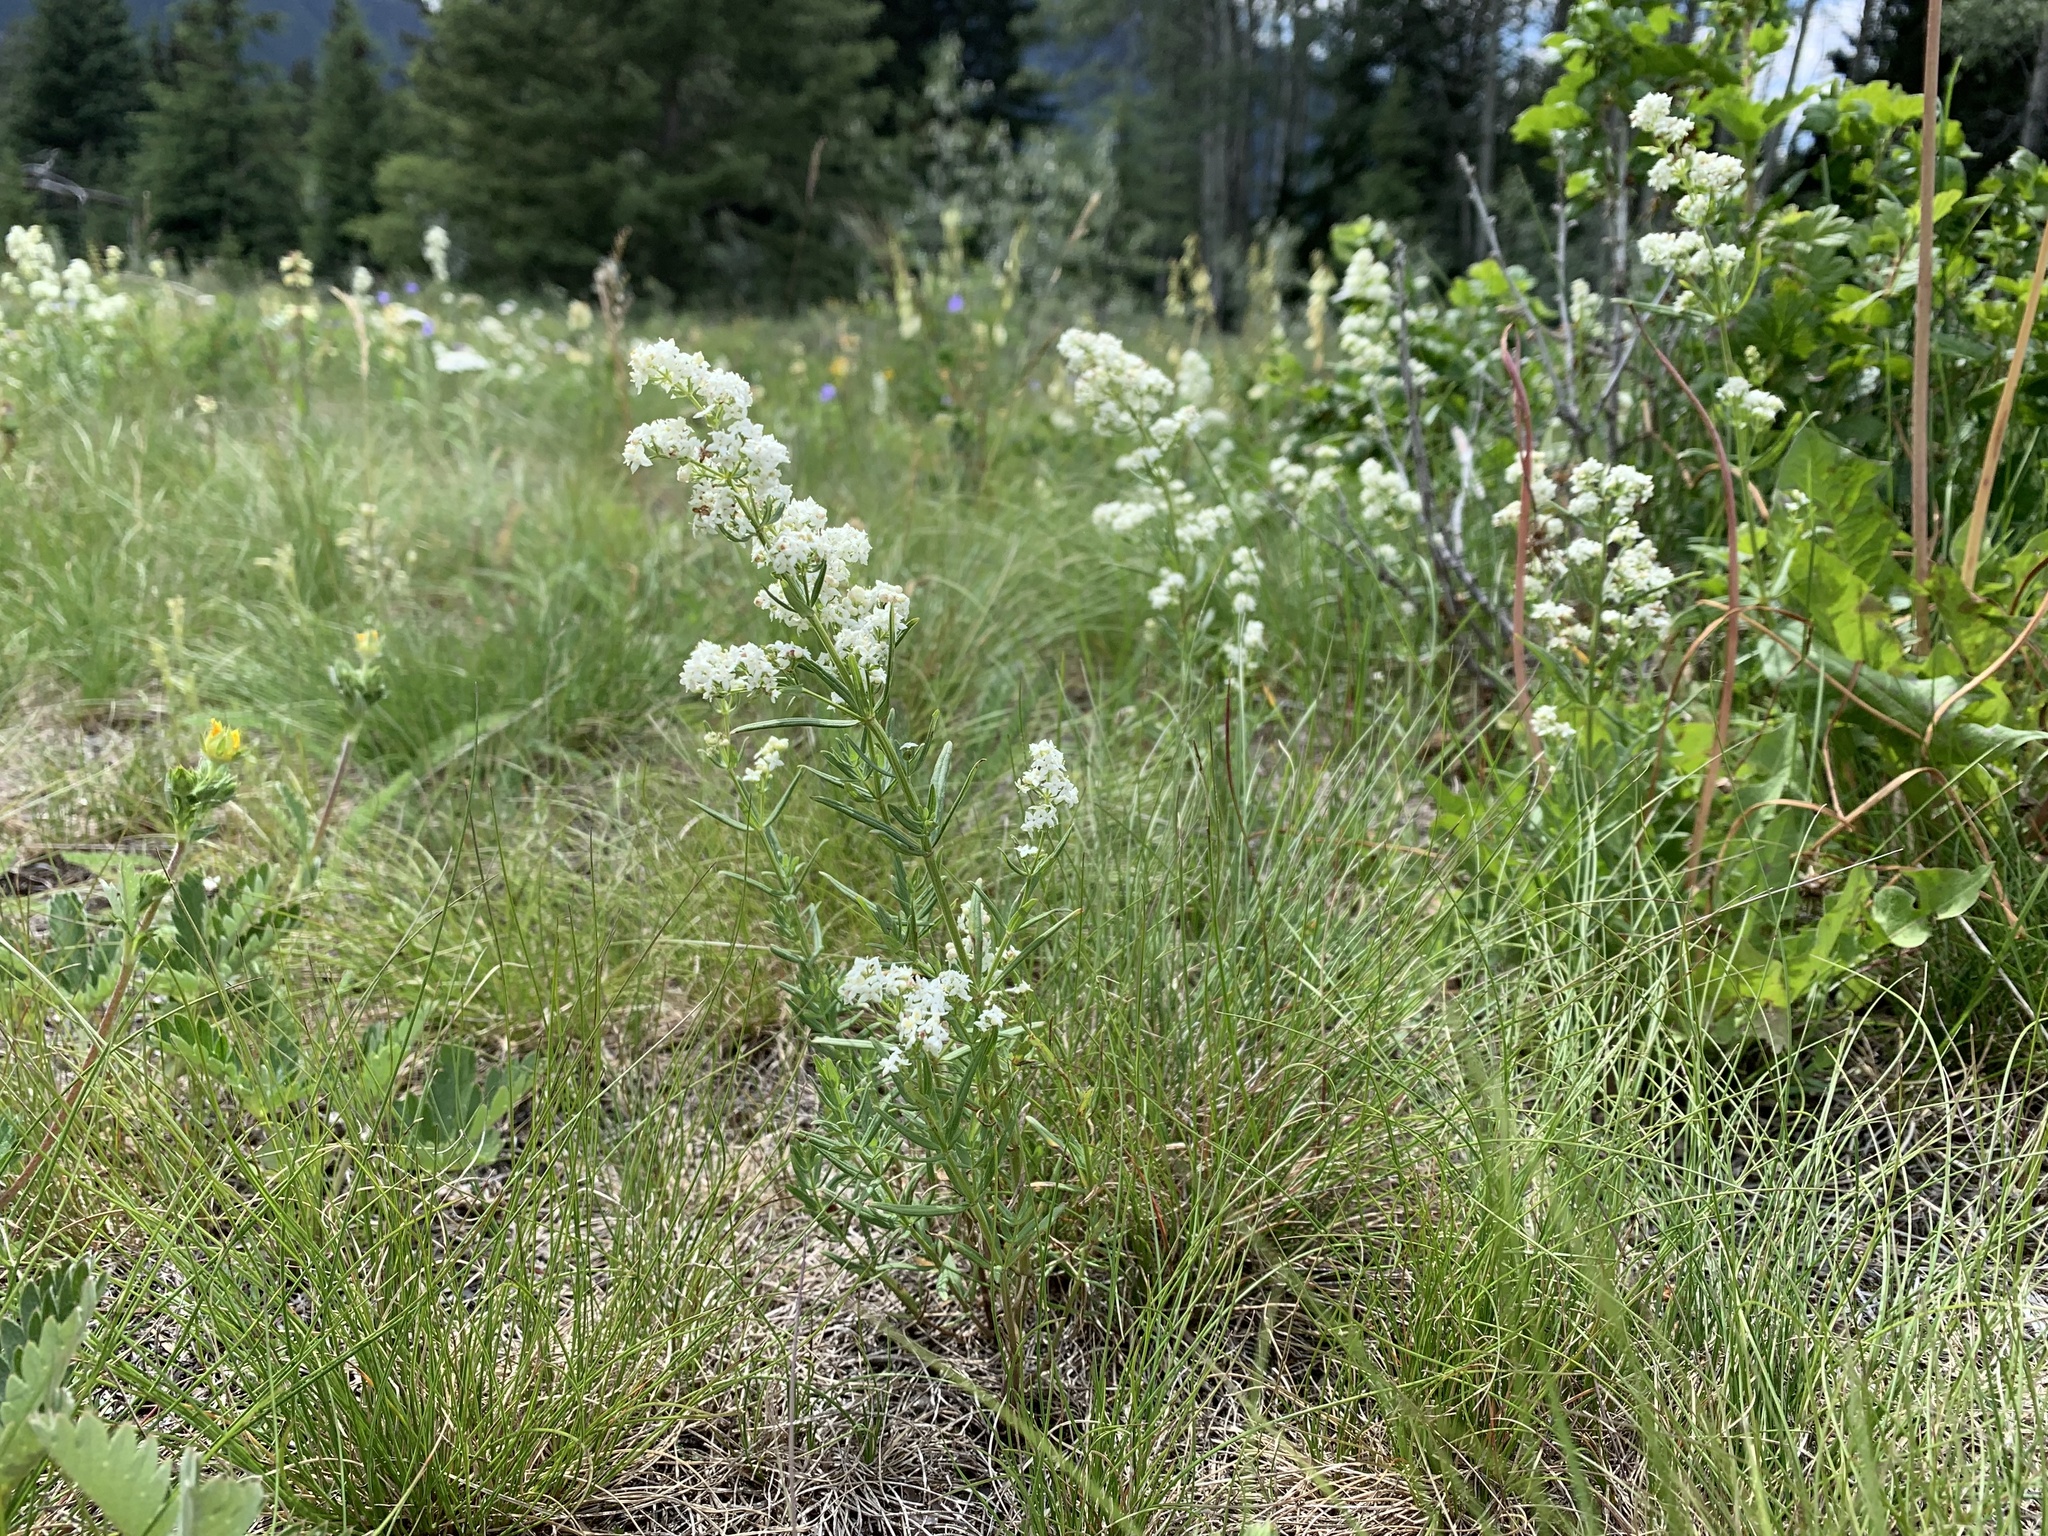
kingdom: Plantae
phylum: Tracheophyta
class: Magnoliopsida
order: Gentianales
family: Rubiaceae
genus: Galium
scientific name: Galium boreale
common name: Northern bedstraw
